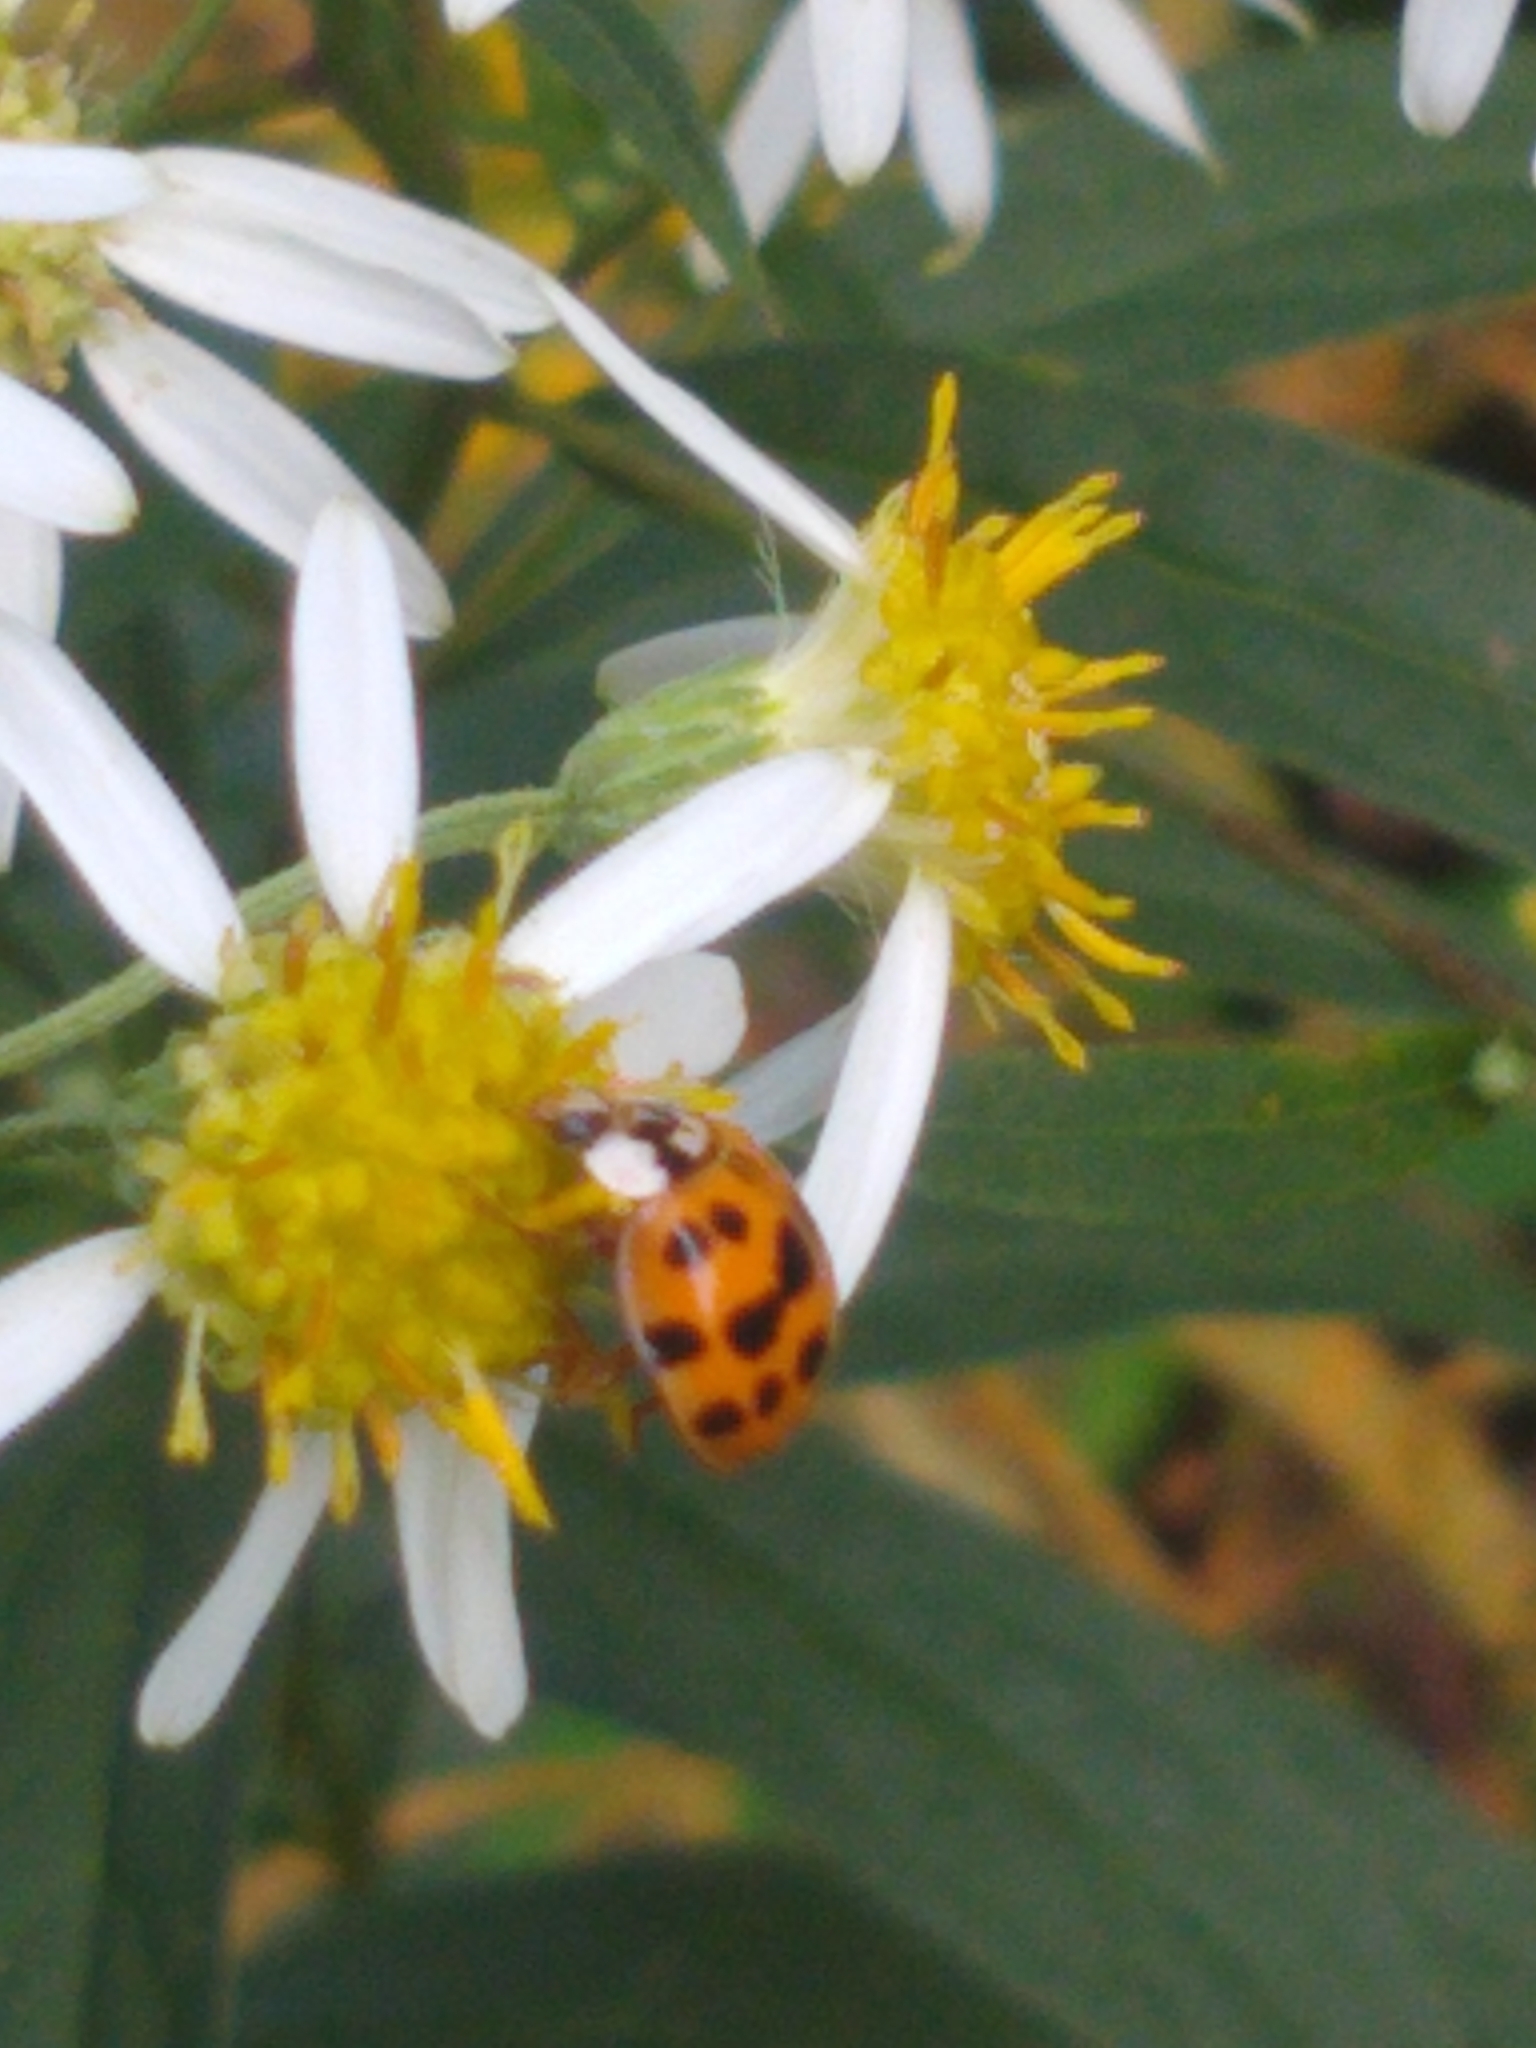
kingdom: Animalia
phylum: Arthropoda
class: Insecta
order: Coleoptera
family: Coccinellidae
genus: Harmonia
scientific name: Harmonia axyridis
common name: Harlequin ladybird
